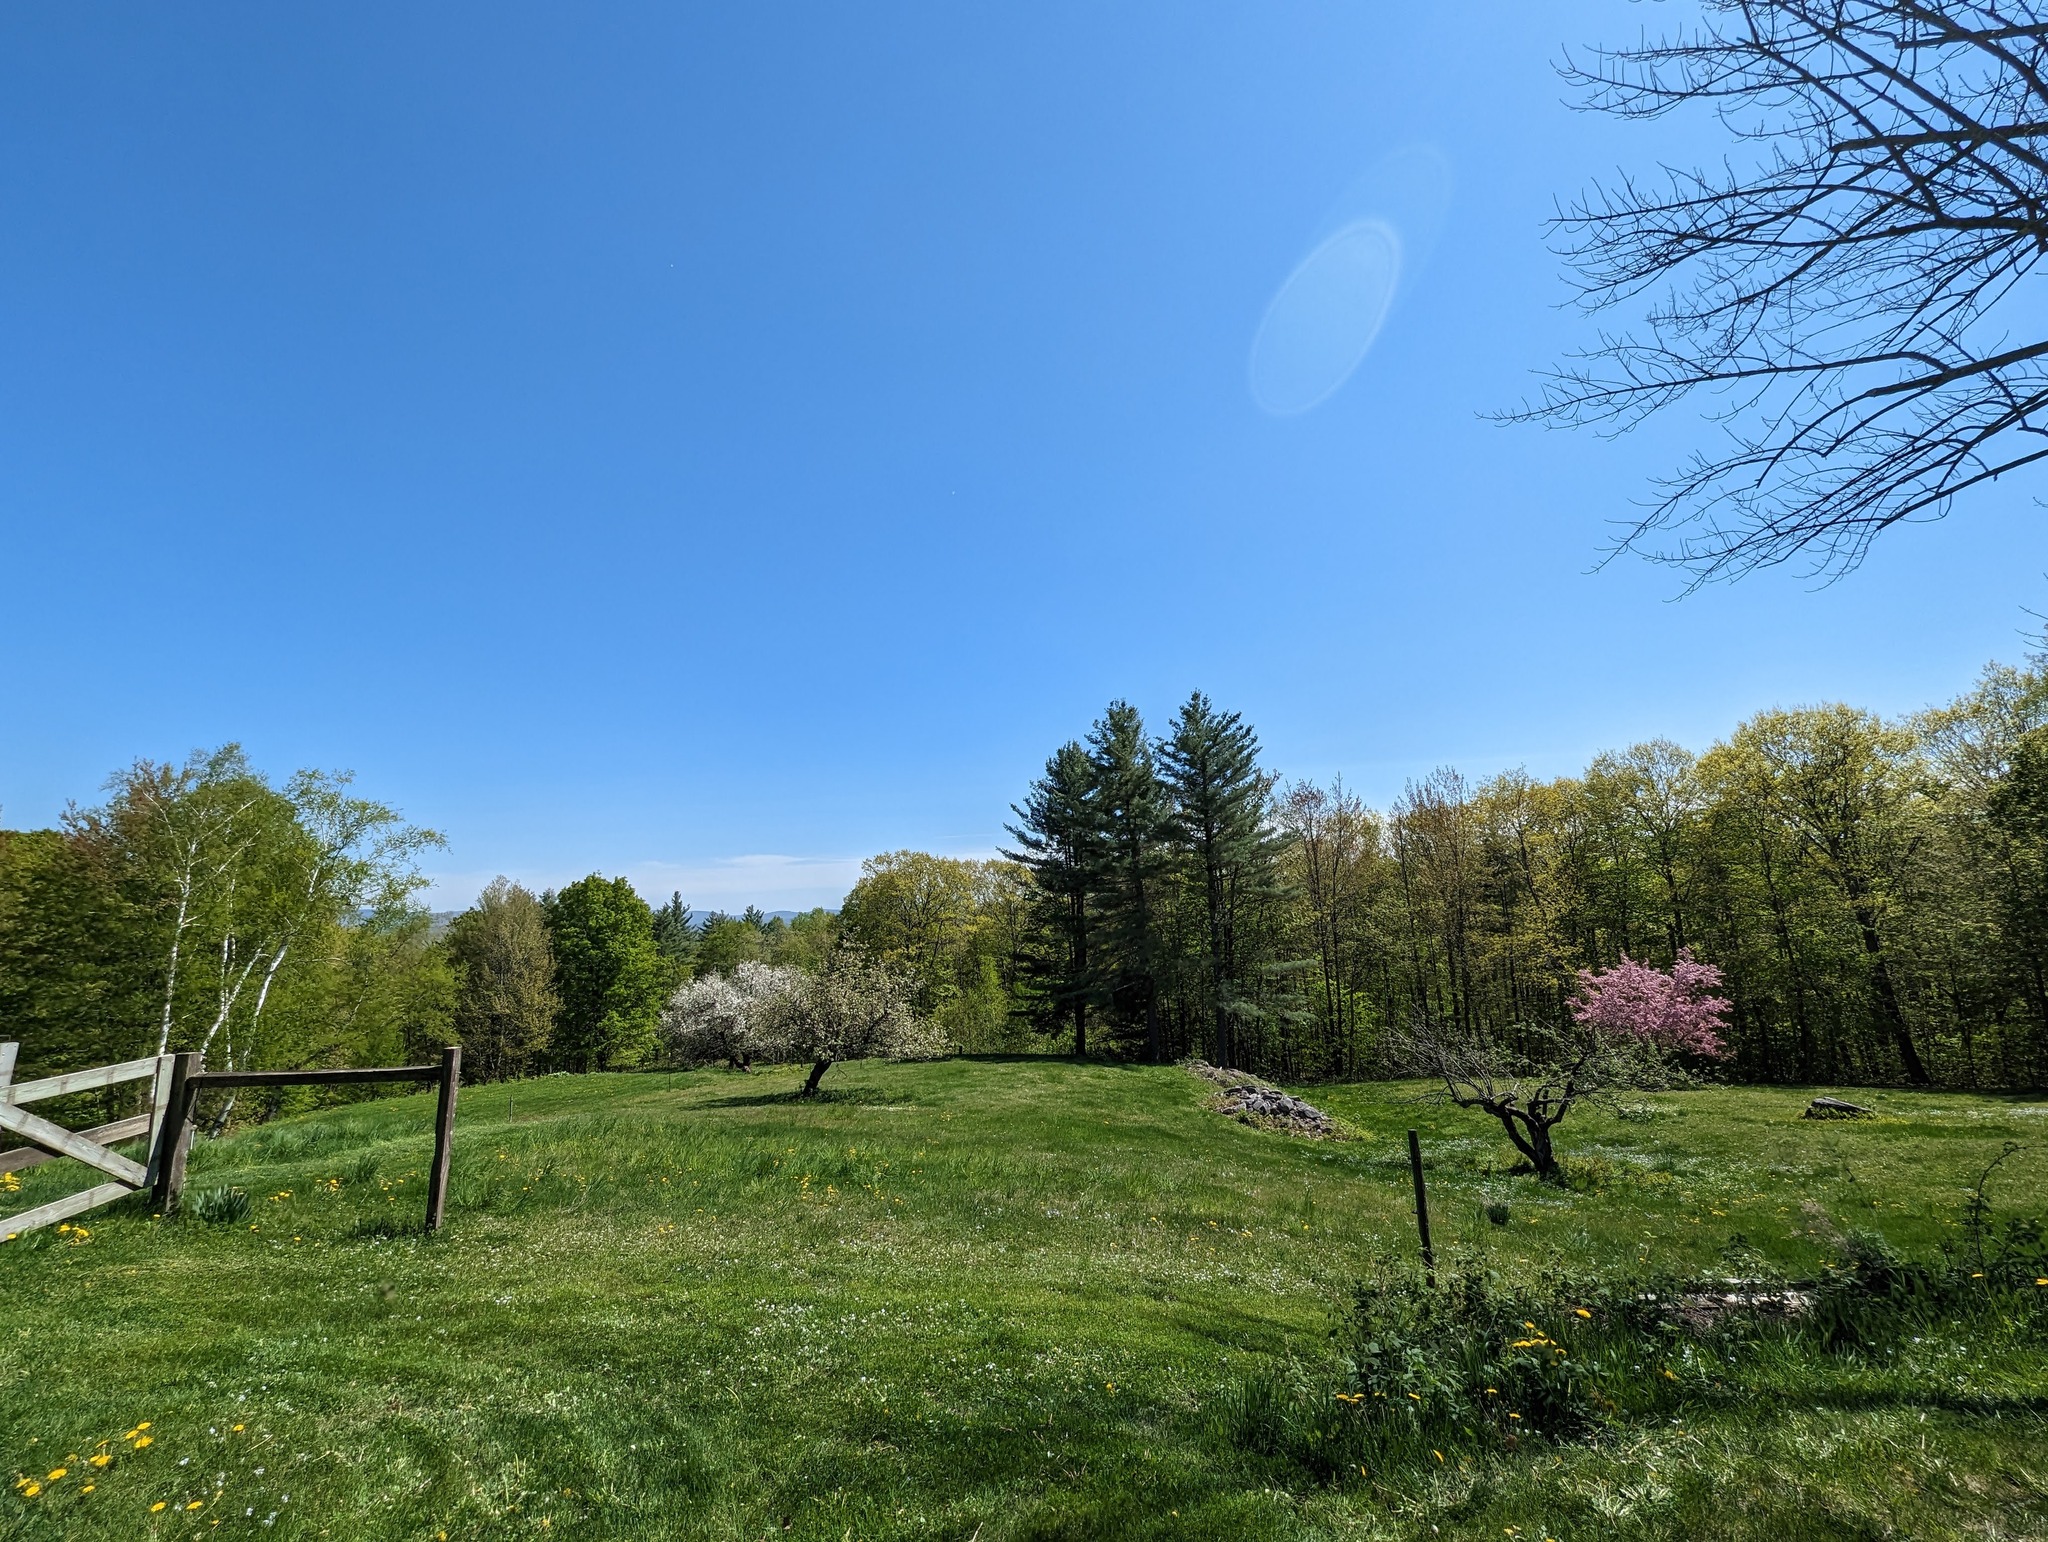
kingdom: Plantae
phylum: Tracheophyta
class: Pinopsida
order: Pinales
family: Pinaceae
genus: Pinus
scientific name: Pinus strobus
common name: Weymouth pine
